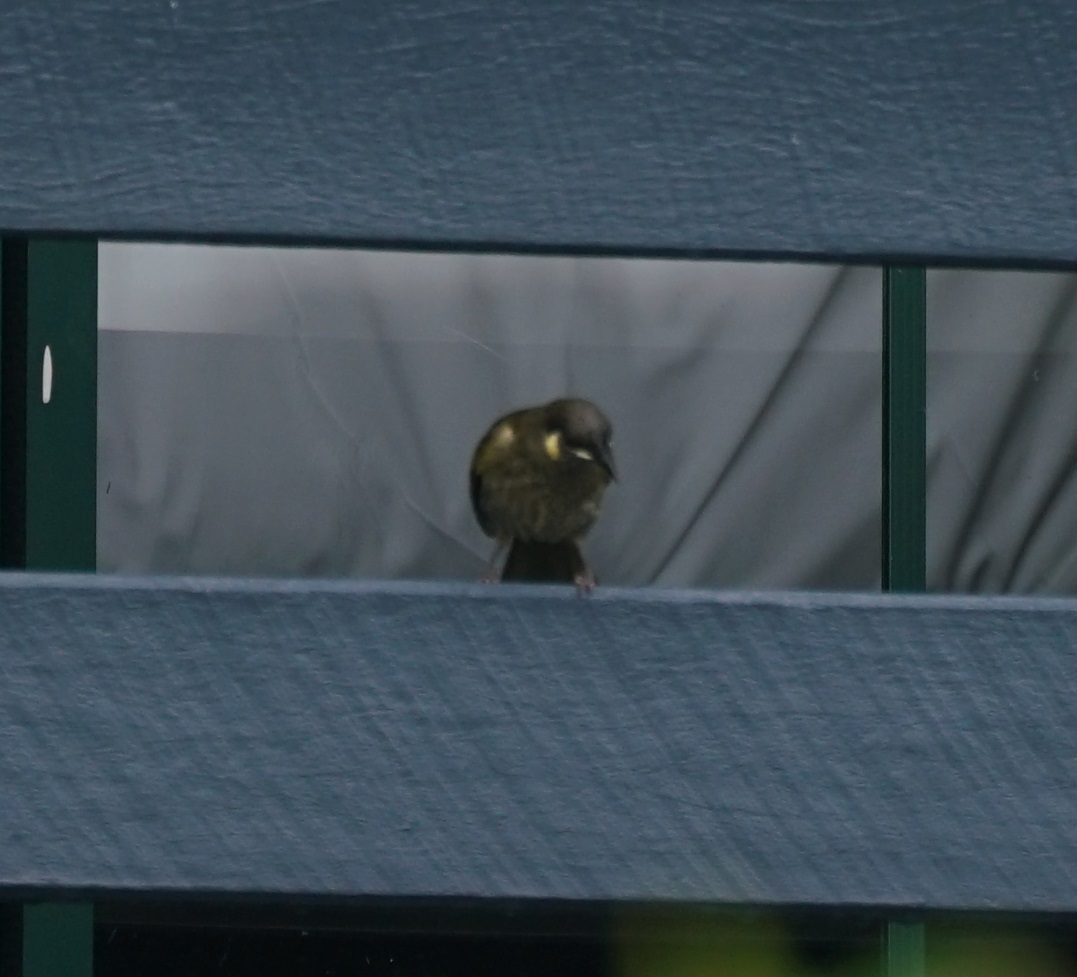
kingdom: Animalia
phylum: Chordata
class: Aves
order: Passeriformes
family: Meliphagidae
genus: Meliphaga
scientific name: Meliphaga lewinii
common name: Lewin's honeyeater
